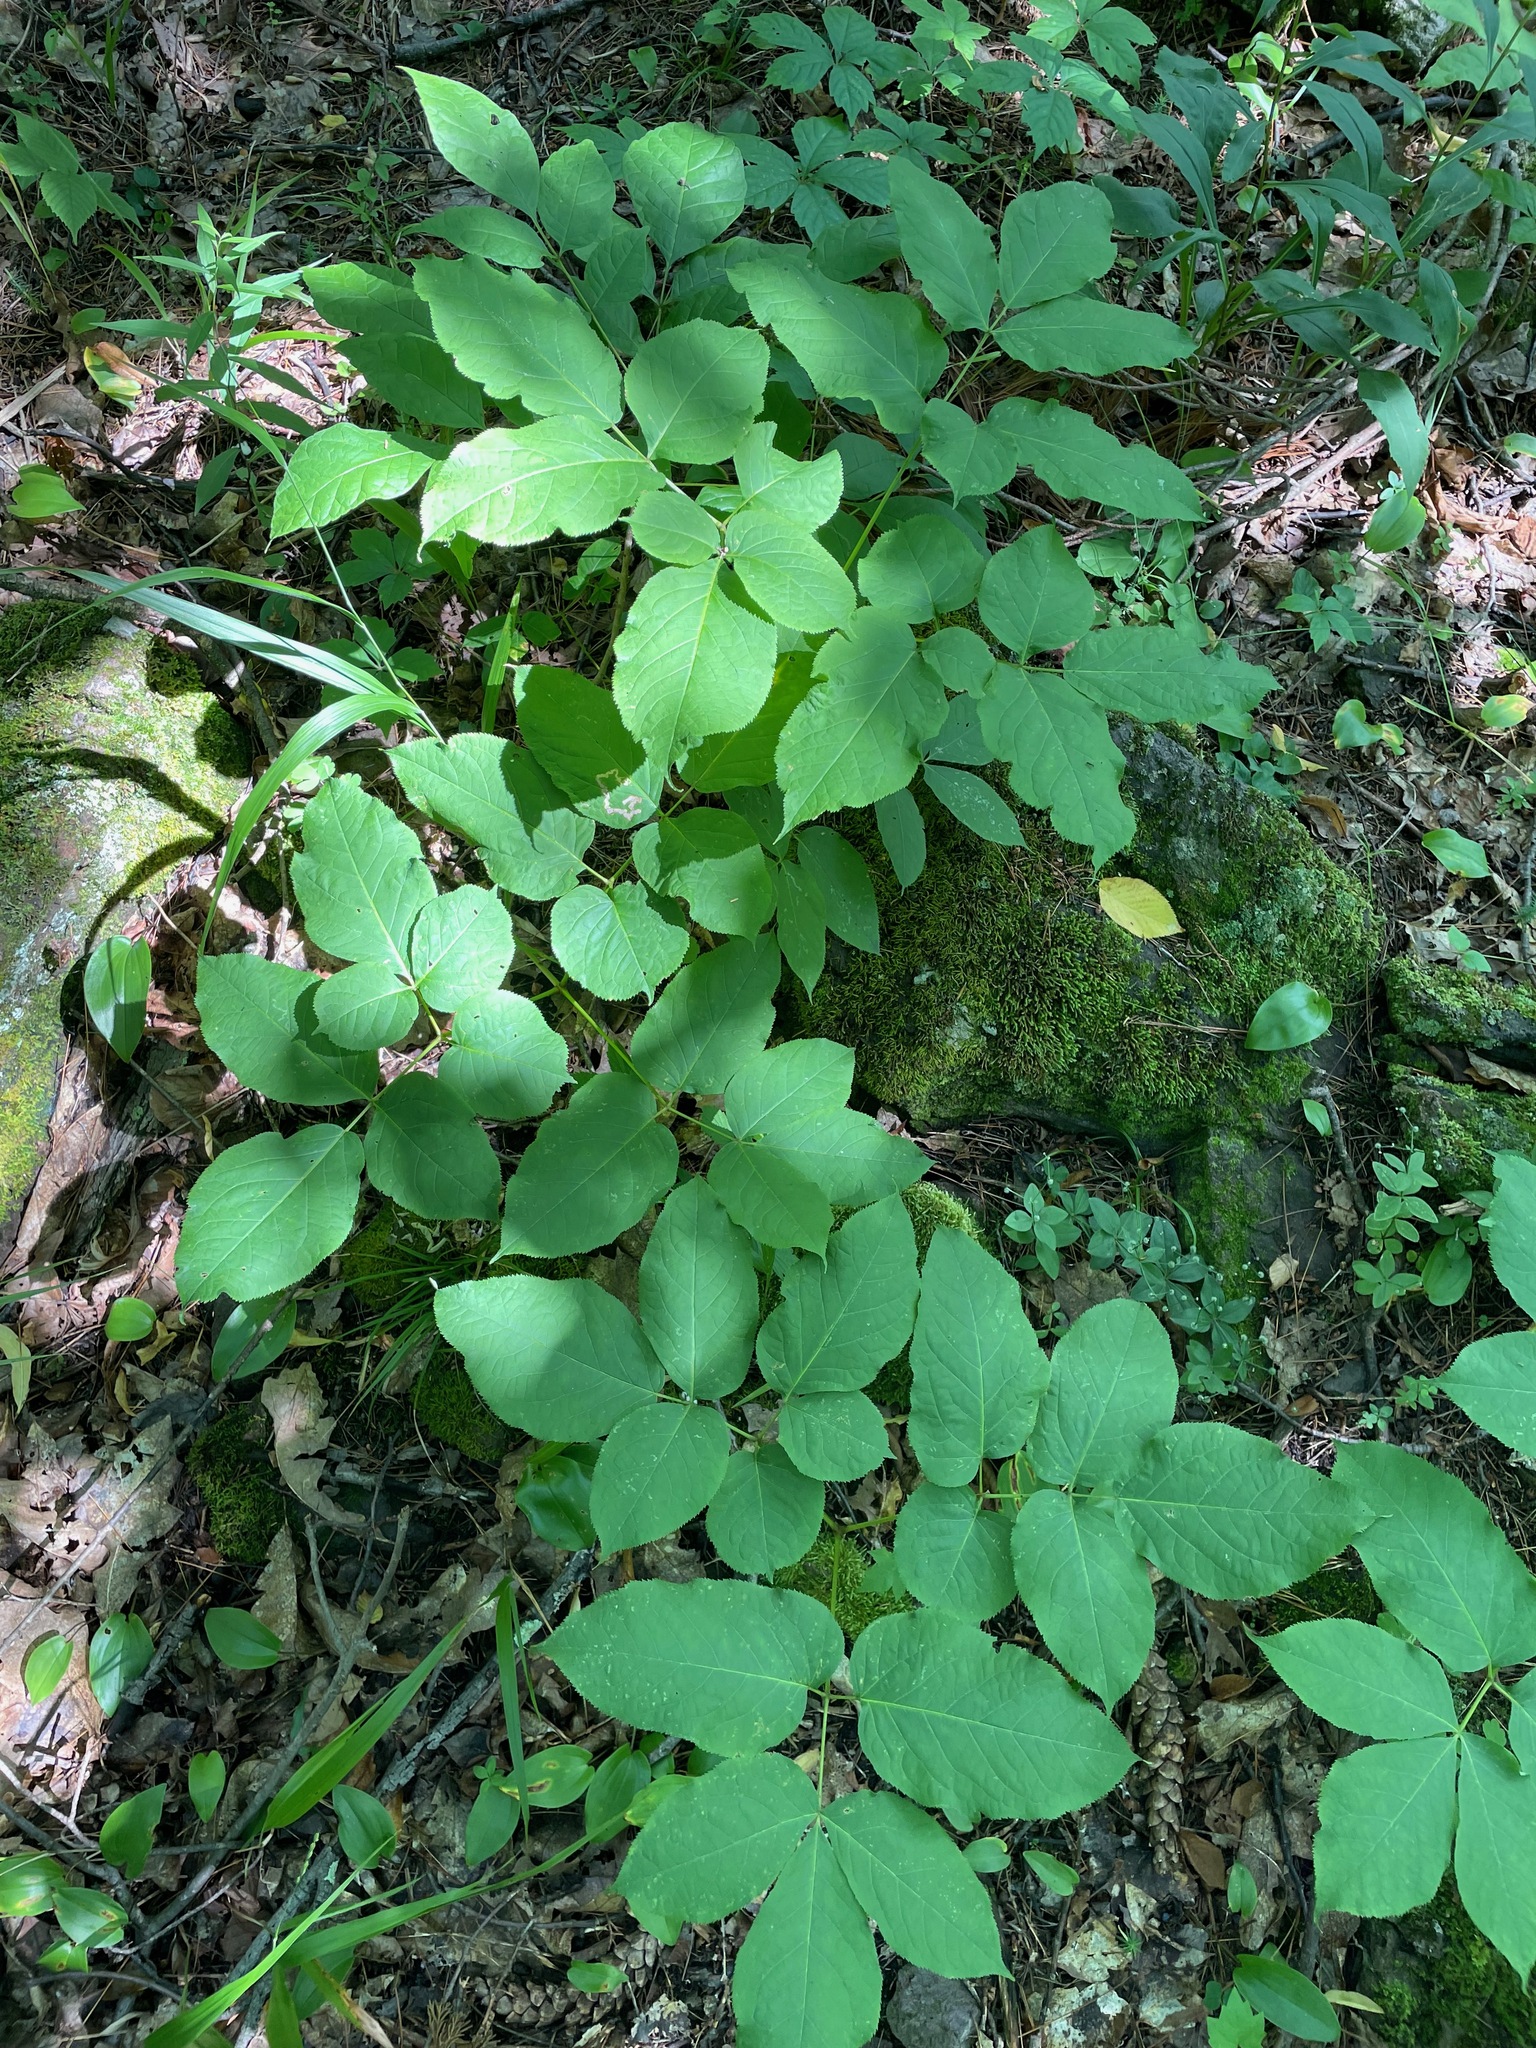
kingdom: Plantae
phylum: Tracheophyta
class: Magnoliopsida
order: Apiales
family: Araliaceae
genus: Aralia
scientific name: Aralia nudicaulis
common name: Wild sarsaparilla
